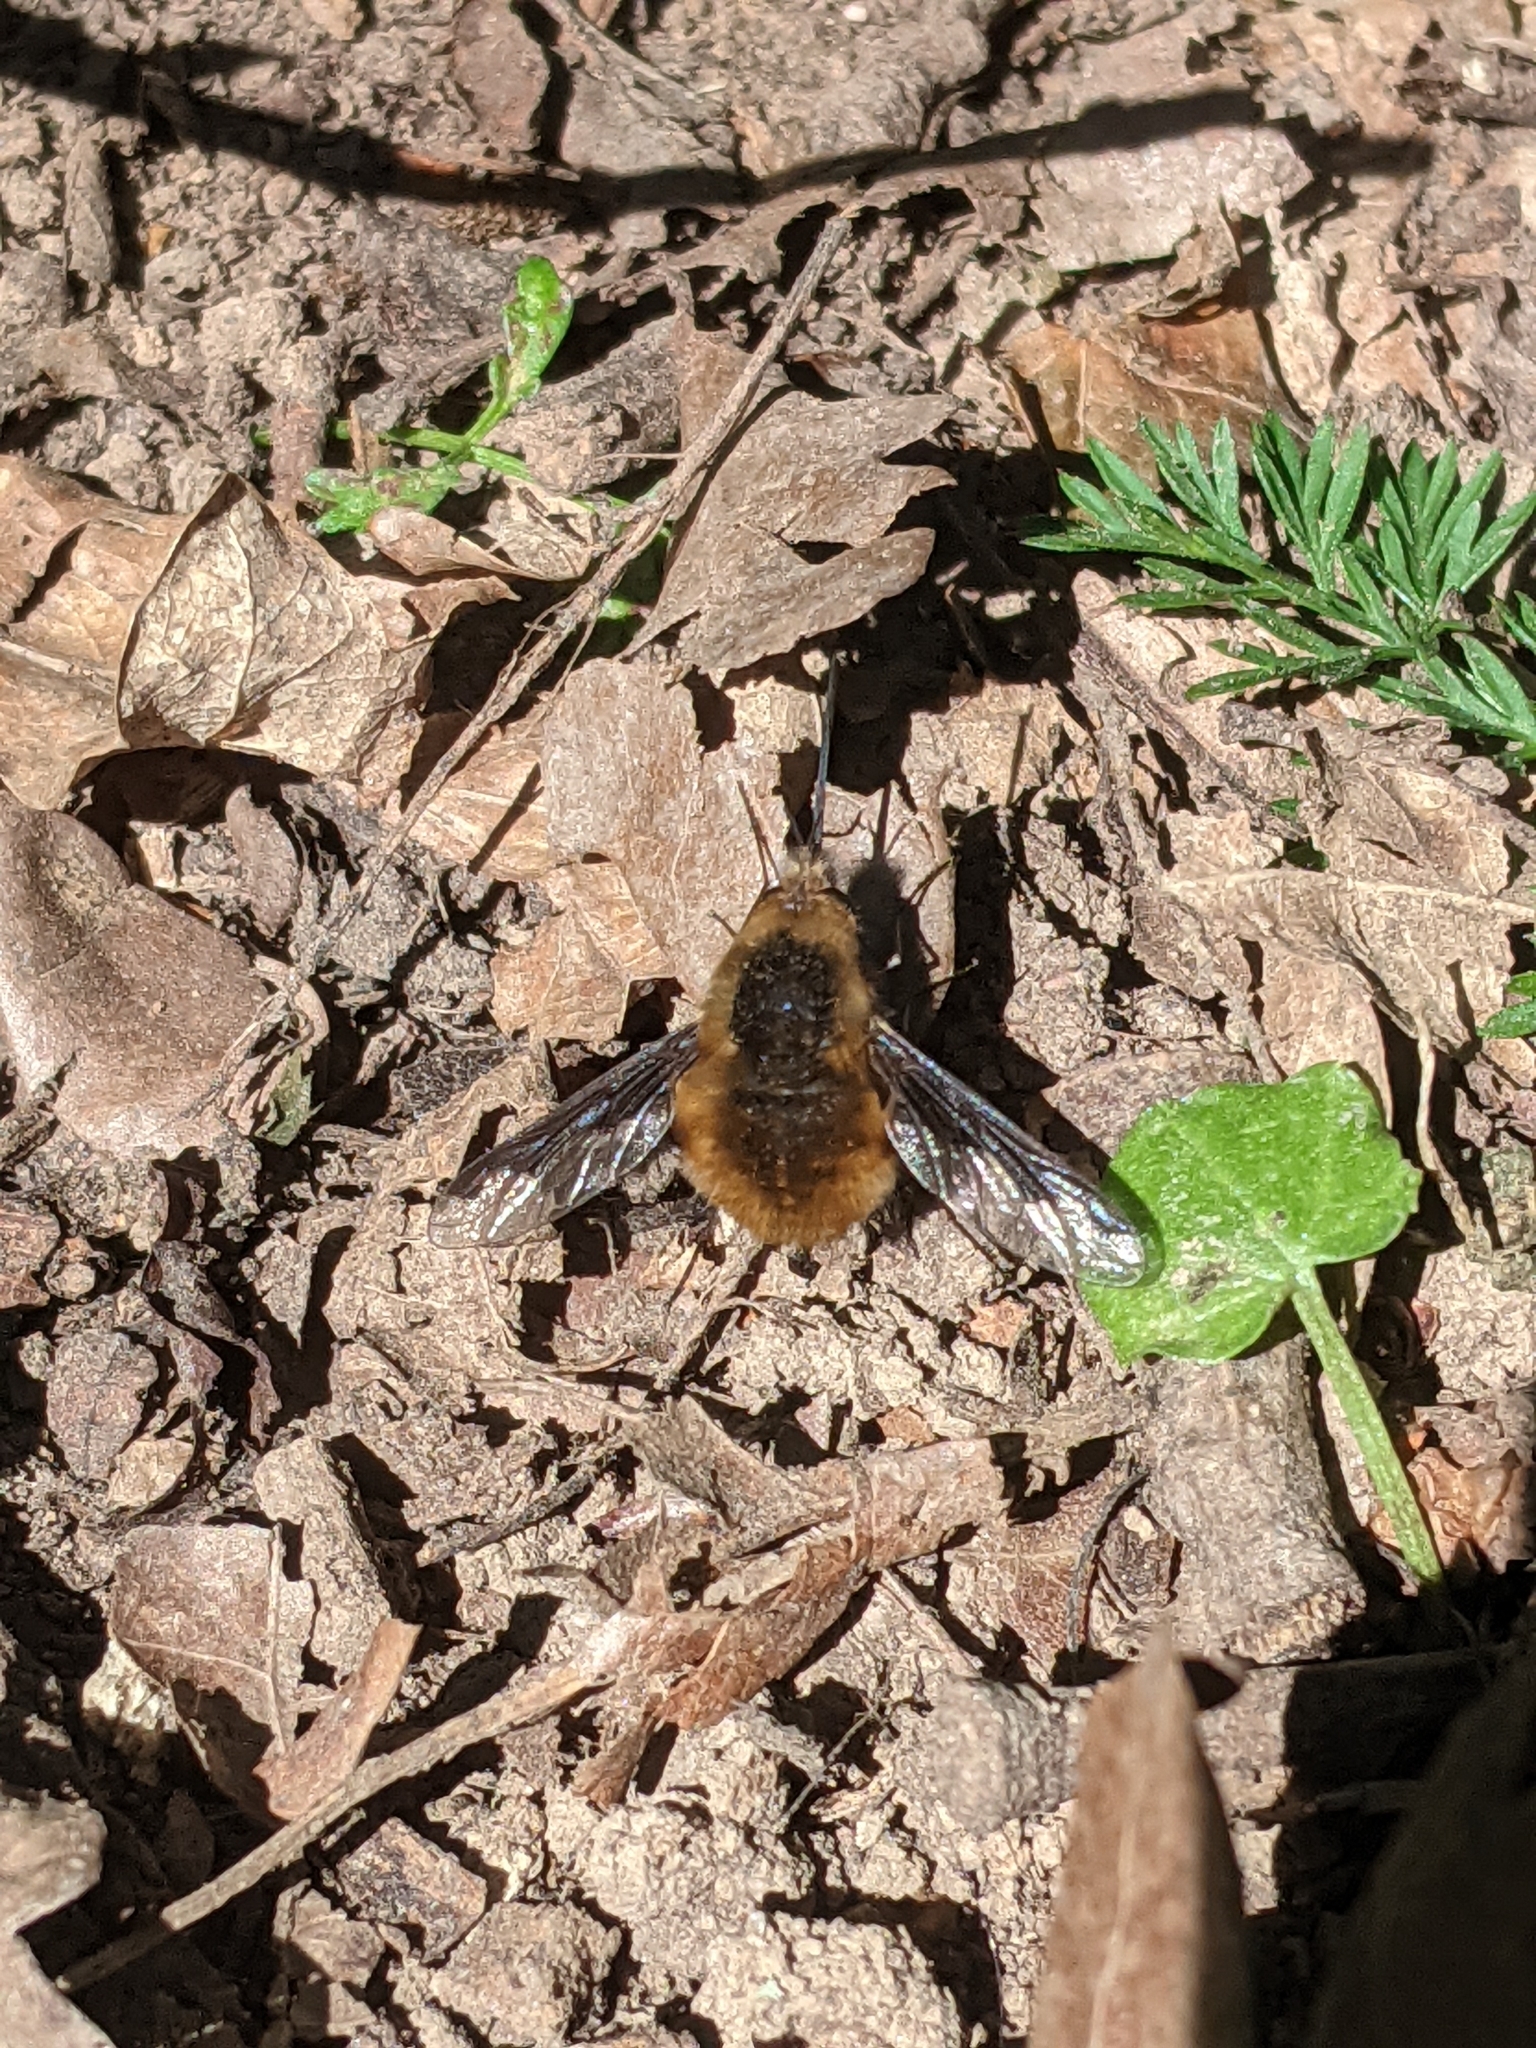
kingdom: Animalia
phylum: Arthropoda
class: Insecta
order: Diptera
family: Bombyliidae
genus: Bombylius
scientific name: Bombylius major
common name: Bee fly
